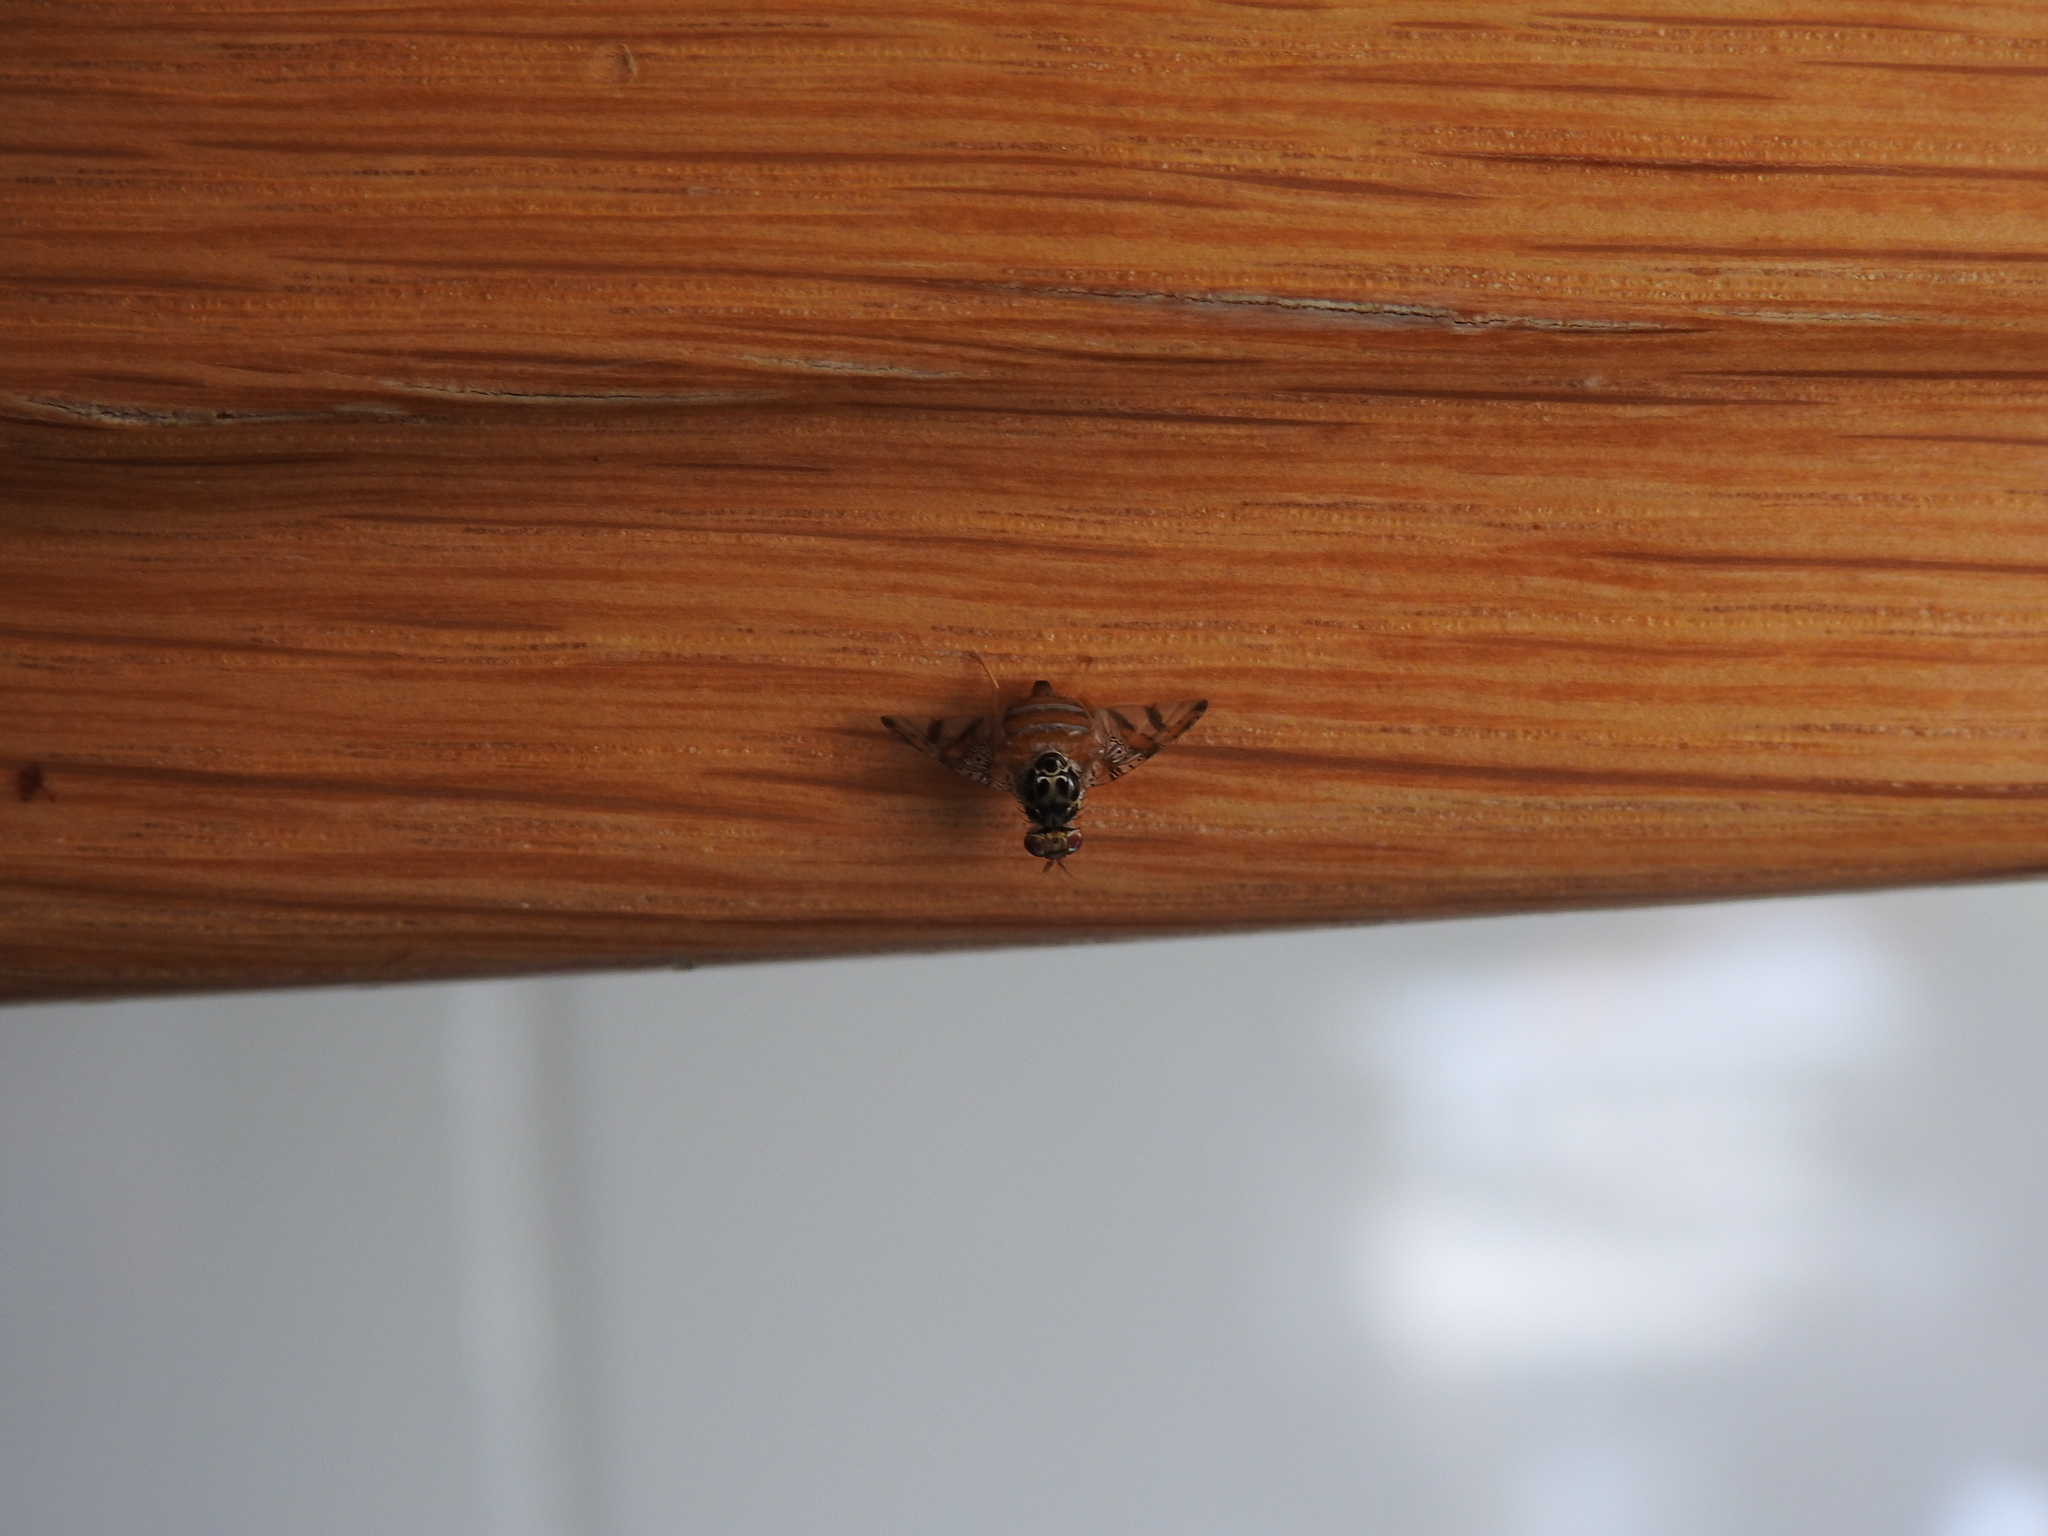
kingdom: Animalia
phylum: Arthropoda
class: Insecta
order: Diptera
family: Tephritidae
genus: Ceratitis
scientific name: Ceratitis capitata
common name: Mediterranean fruit fly
